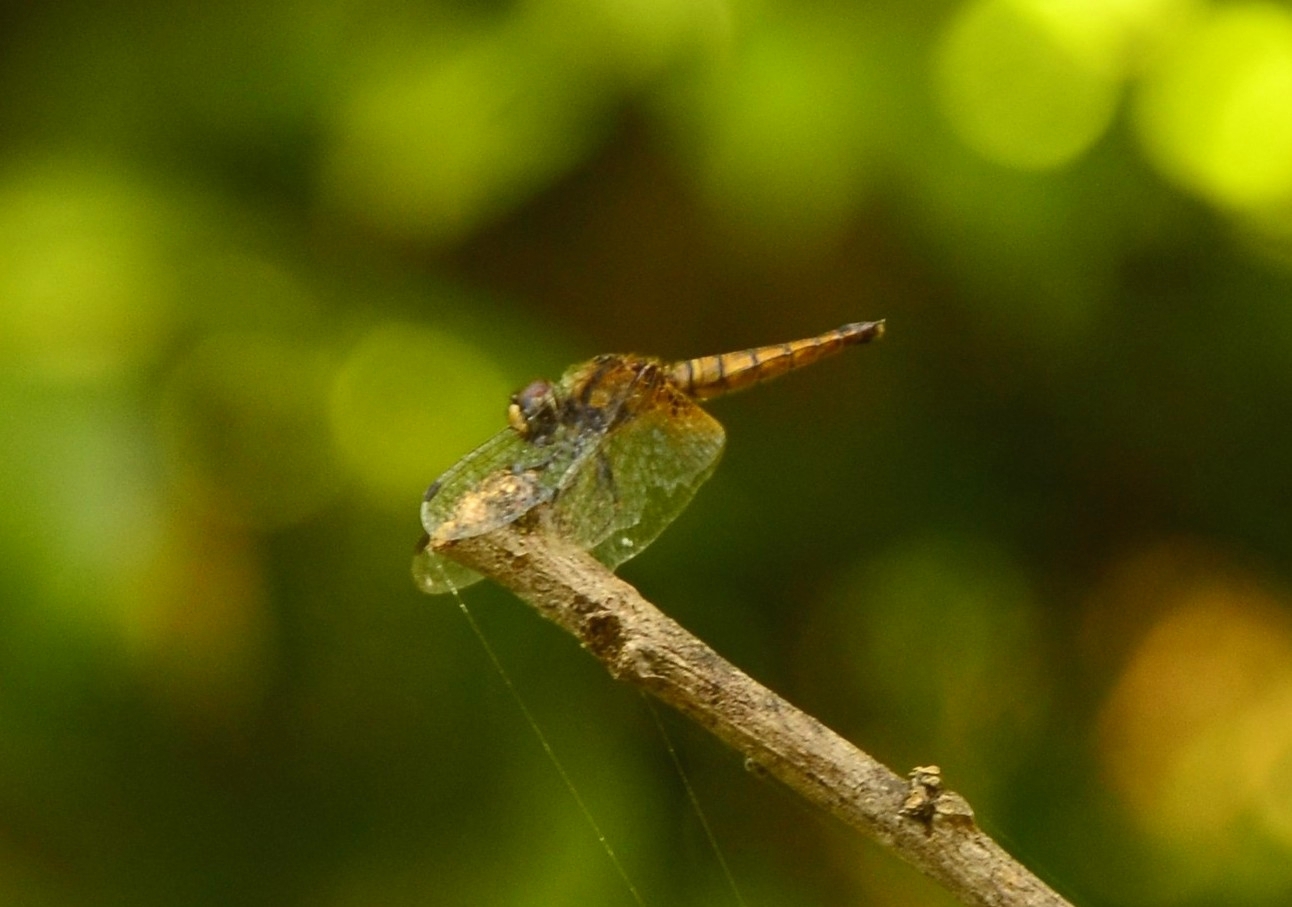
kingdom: Animalia
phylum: Arthropoda
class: Insecta
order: Odonata
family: Libellulidae
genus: Aethriamanta
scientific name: Aethriamanta brevipennis
